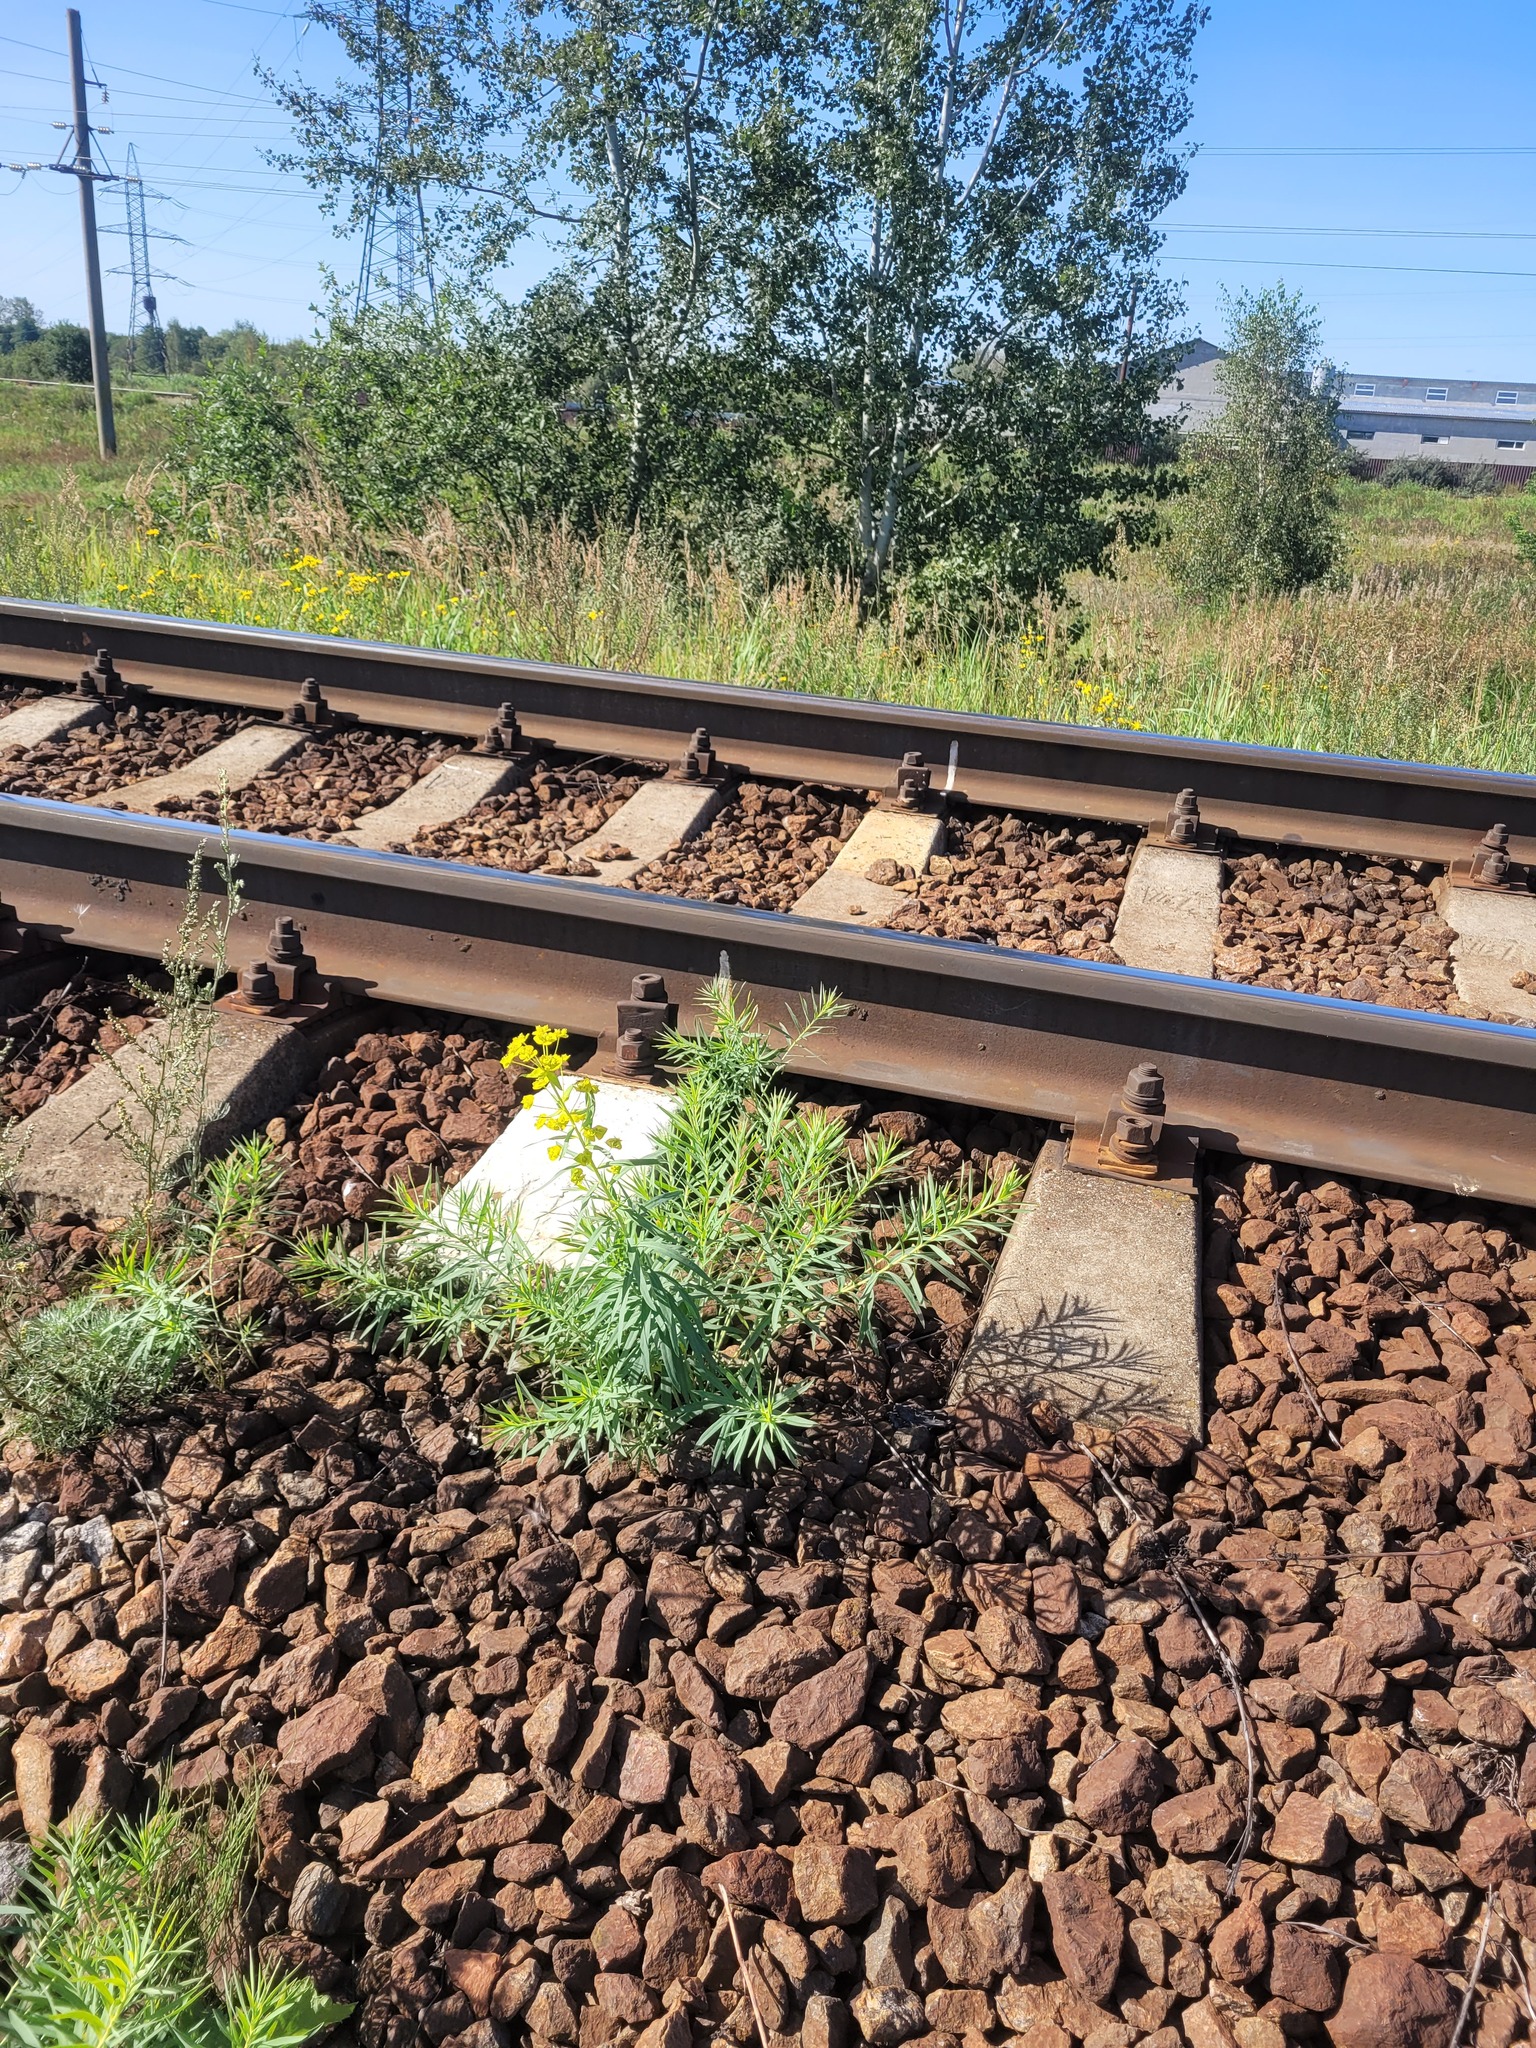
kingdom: Plantae
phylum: Tracheophyta
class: Magnoliopsida
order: Malpighiales
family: Euphorbiaceae
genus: Euphorbia
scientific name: Euphorbia virgata
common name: Leafy spurge
